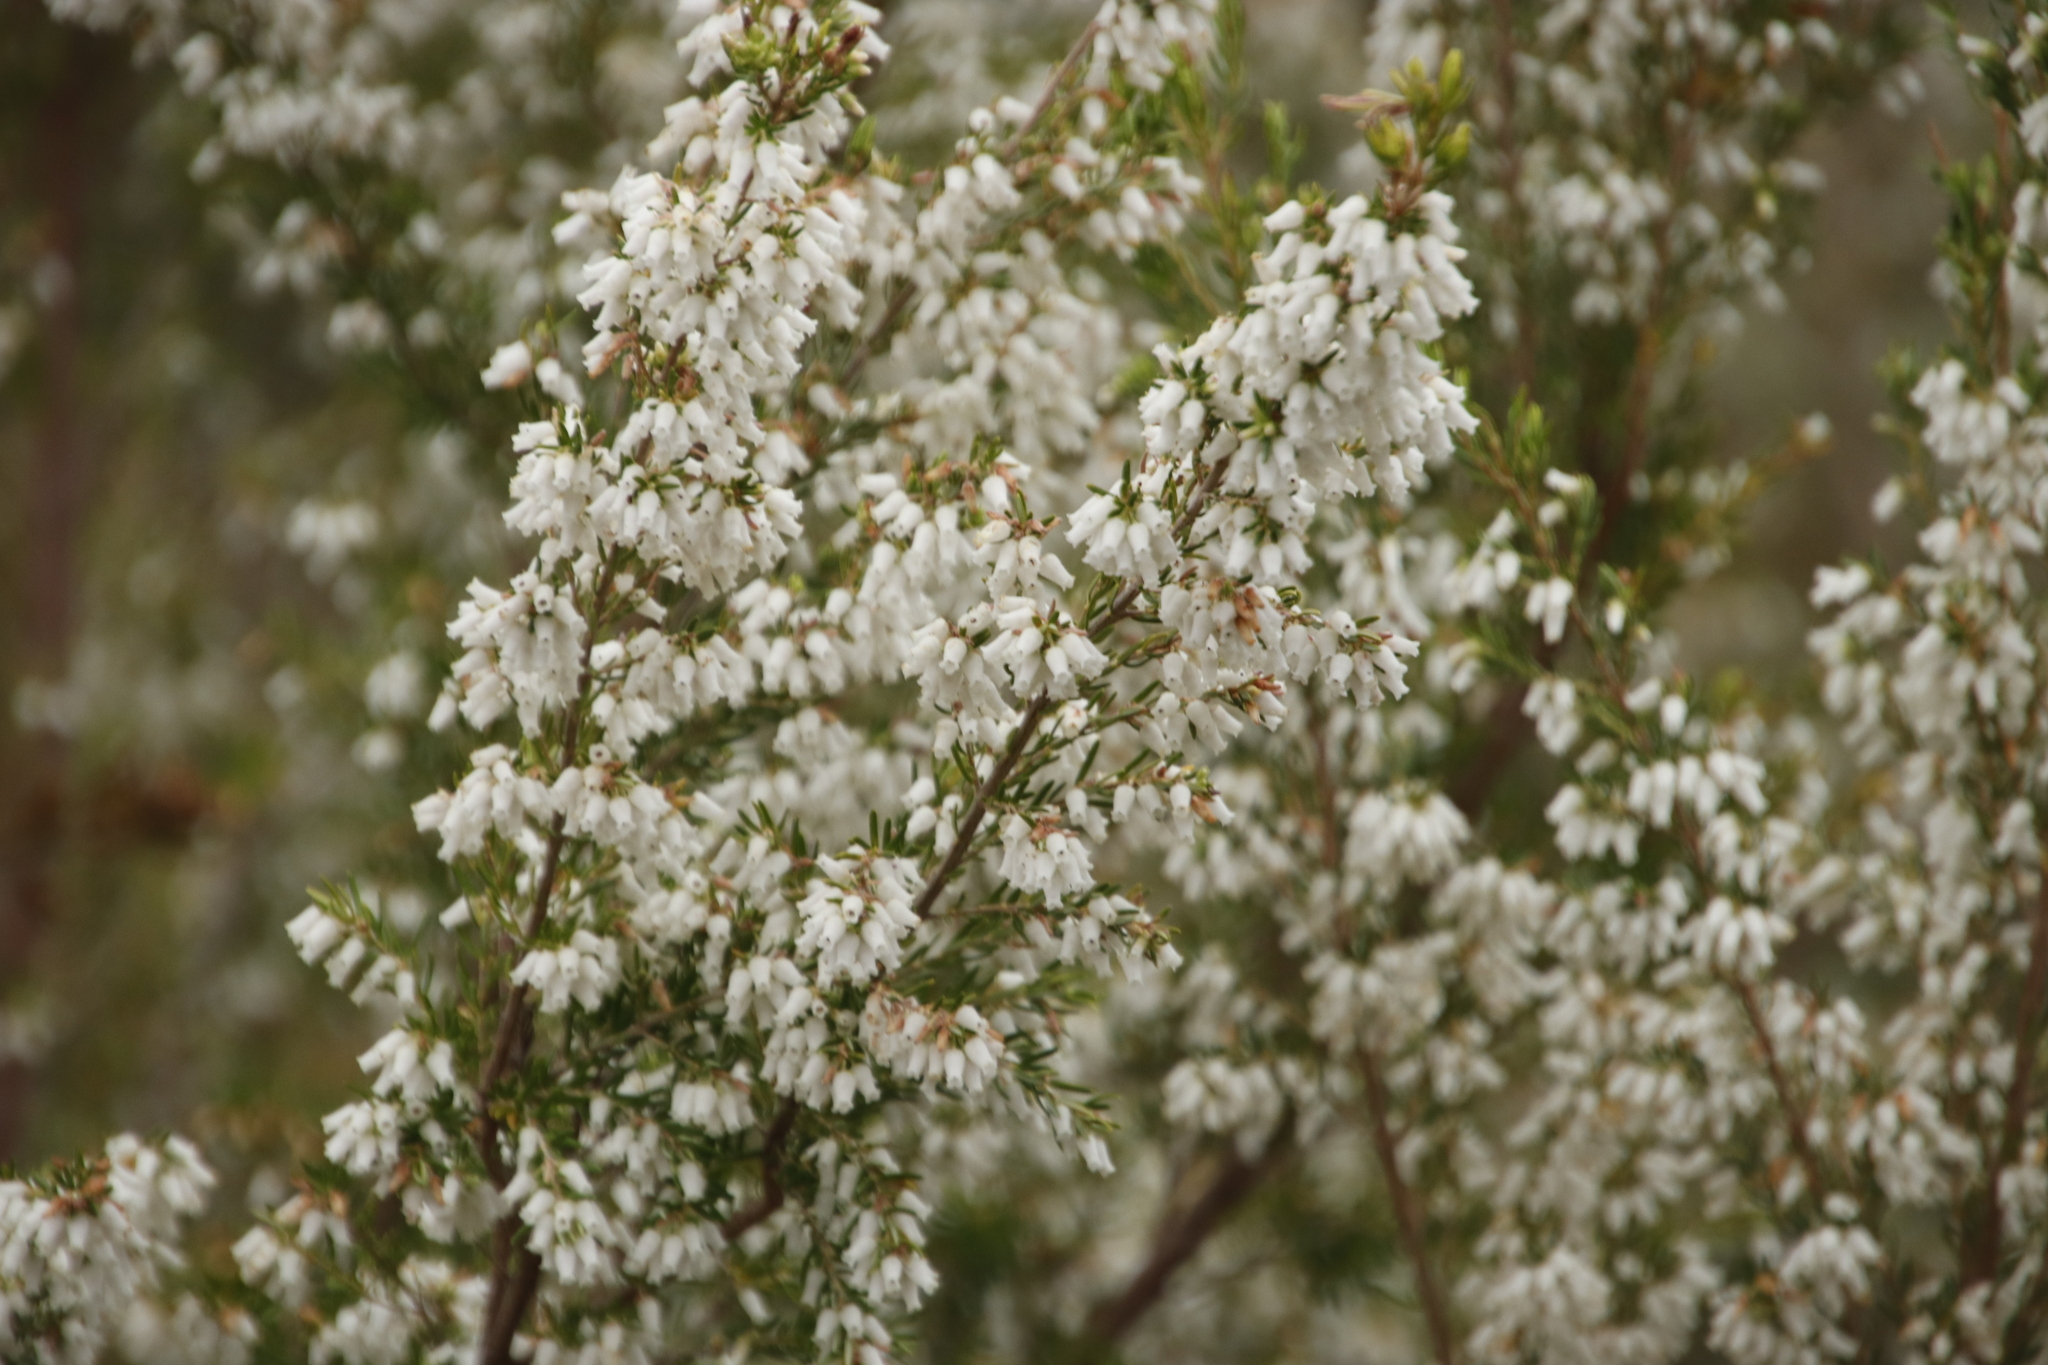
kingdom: Plantae
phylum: Tracheophyta
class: Magnoliopsida
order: Ericales
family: Ericaceae
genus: Erica
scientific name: Erica caffra
